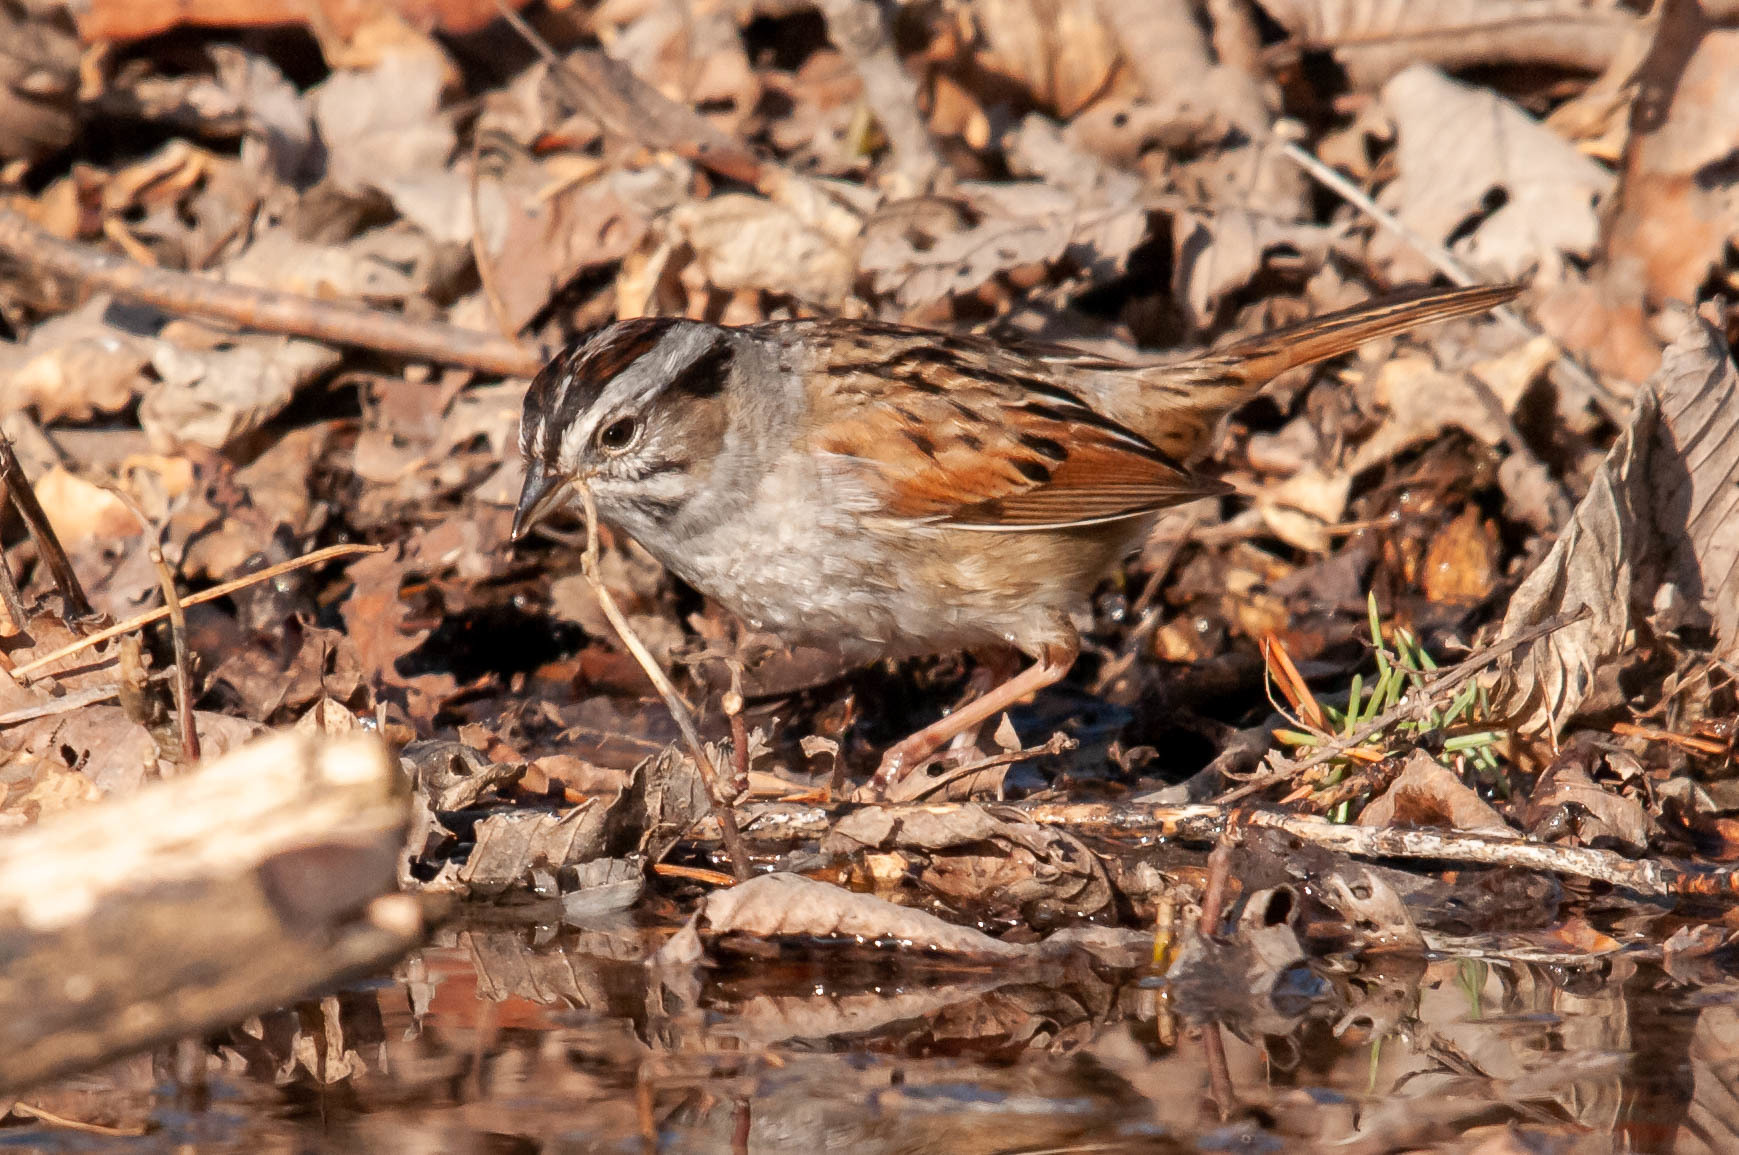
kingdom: Animalia
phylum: Chordata
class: Aves
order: Passeriformes
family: Passerellidae
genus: Melospiza
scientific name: Melospiza georgiana
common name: Swamp sparrow
